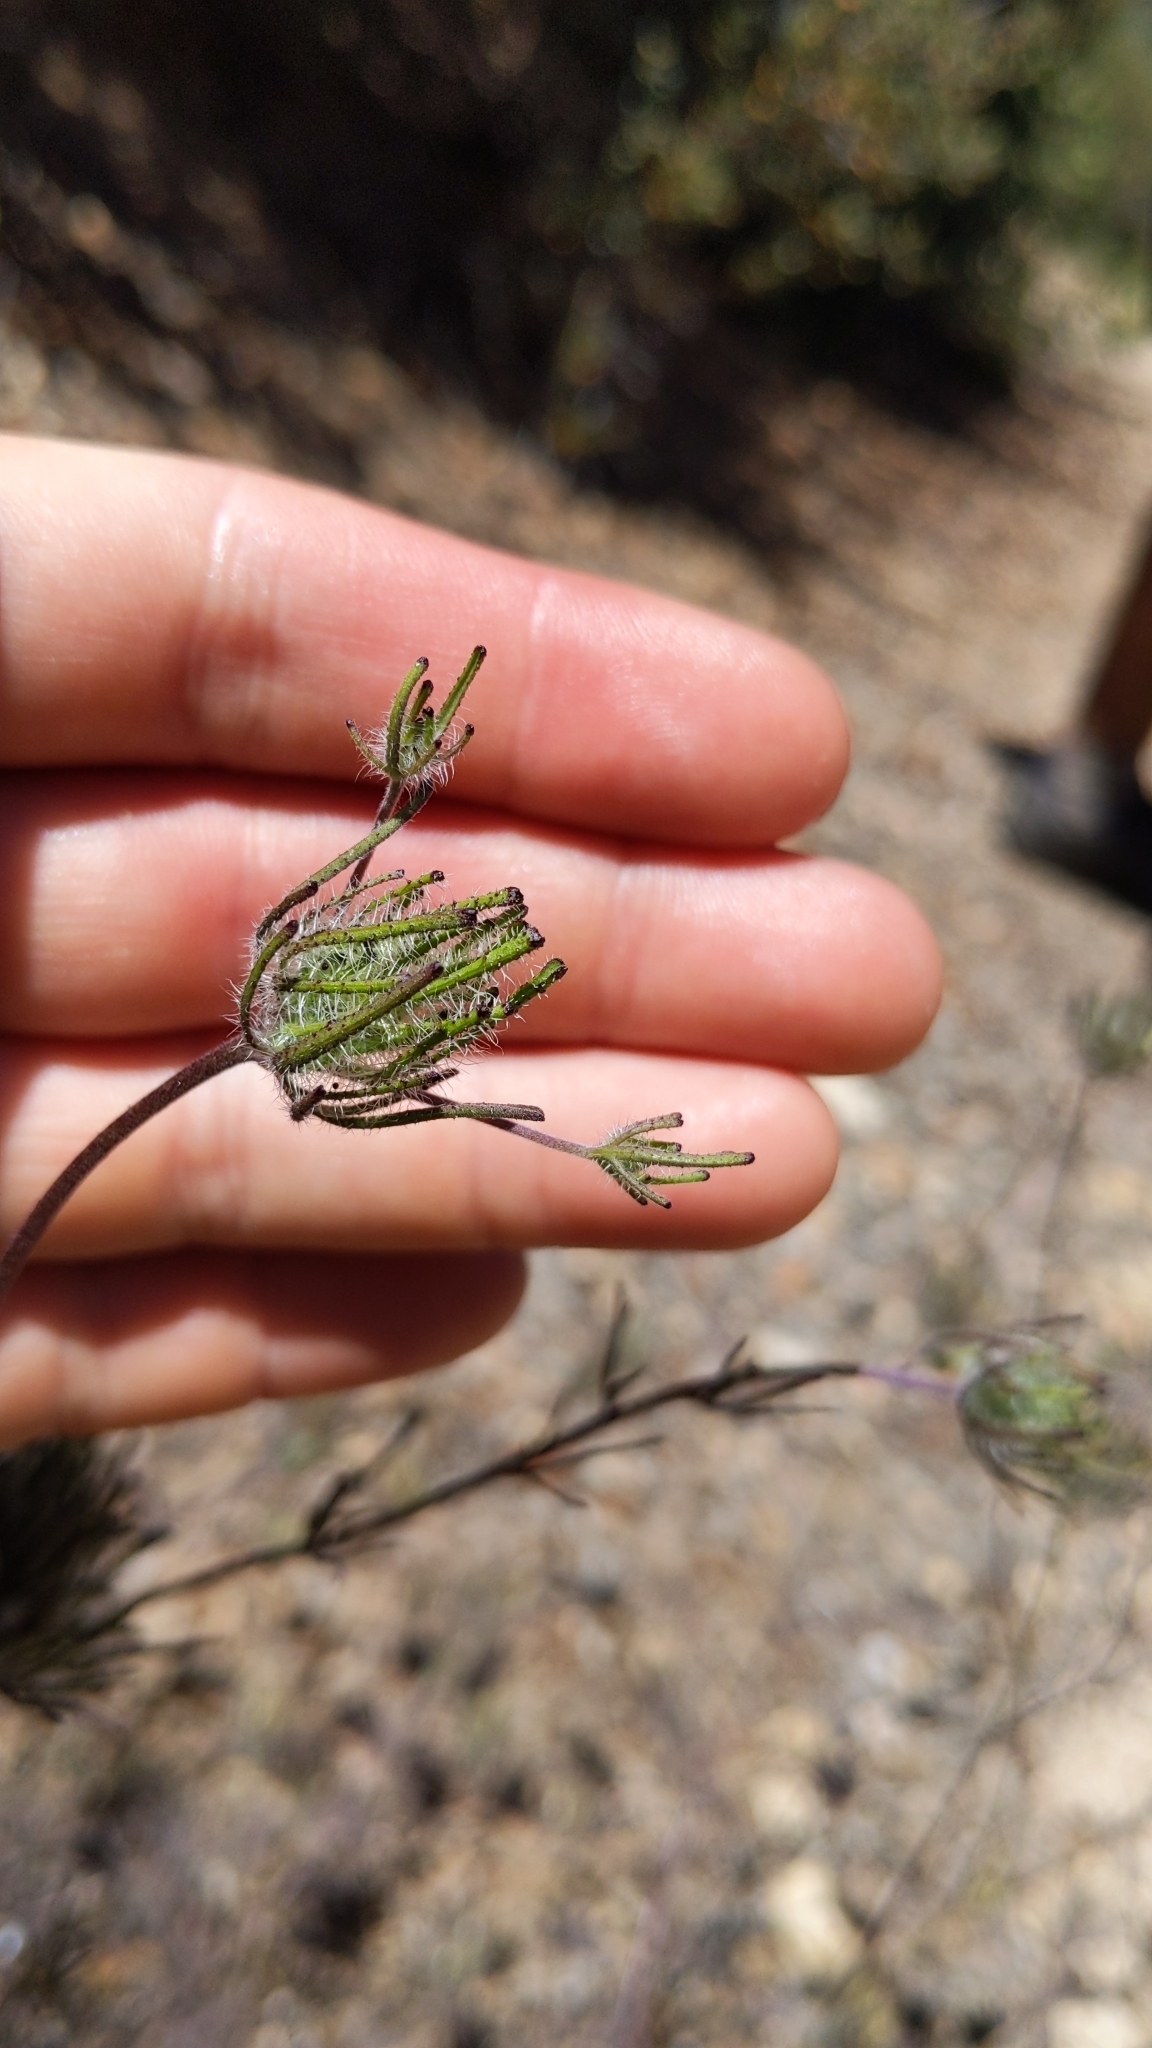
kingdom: Plantae
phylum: Tracheophyta
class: Magnoliopsida
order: Lamiales
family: Orobanchaceae
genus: Cordylanthus
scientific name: Cordylanthus rigidus
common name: Stiff-branch bird's-beak
